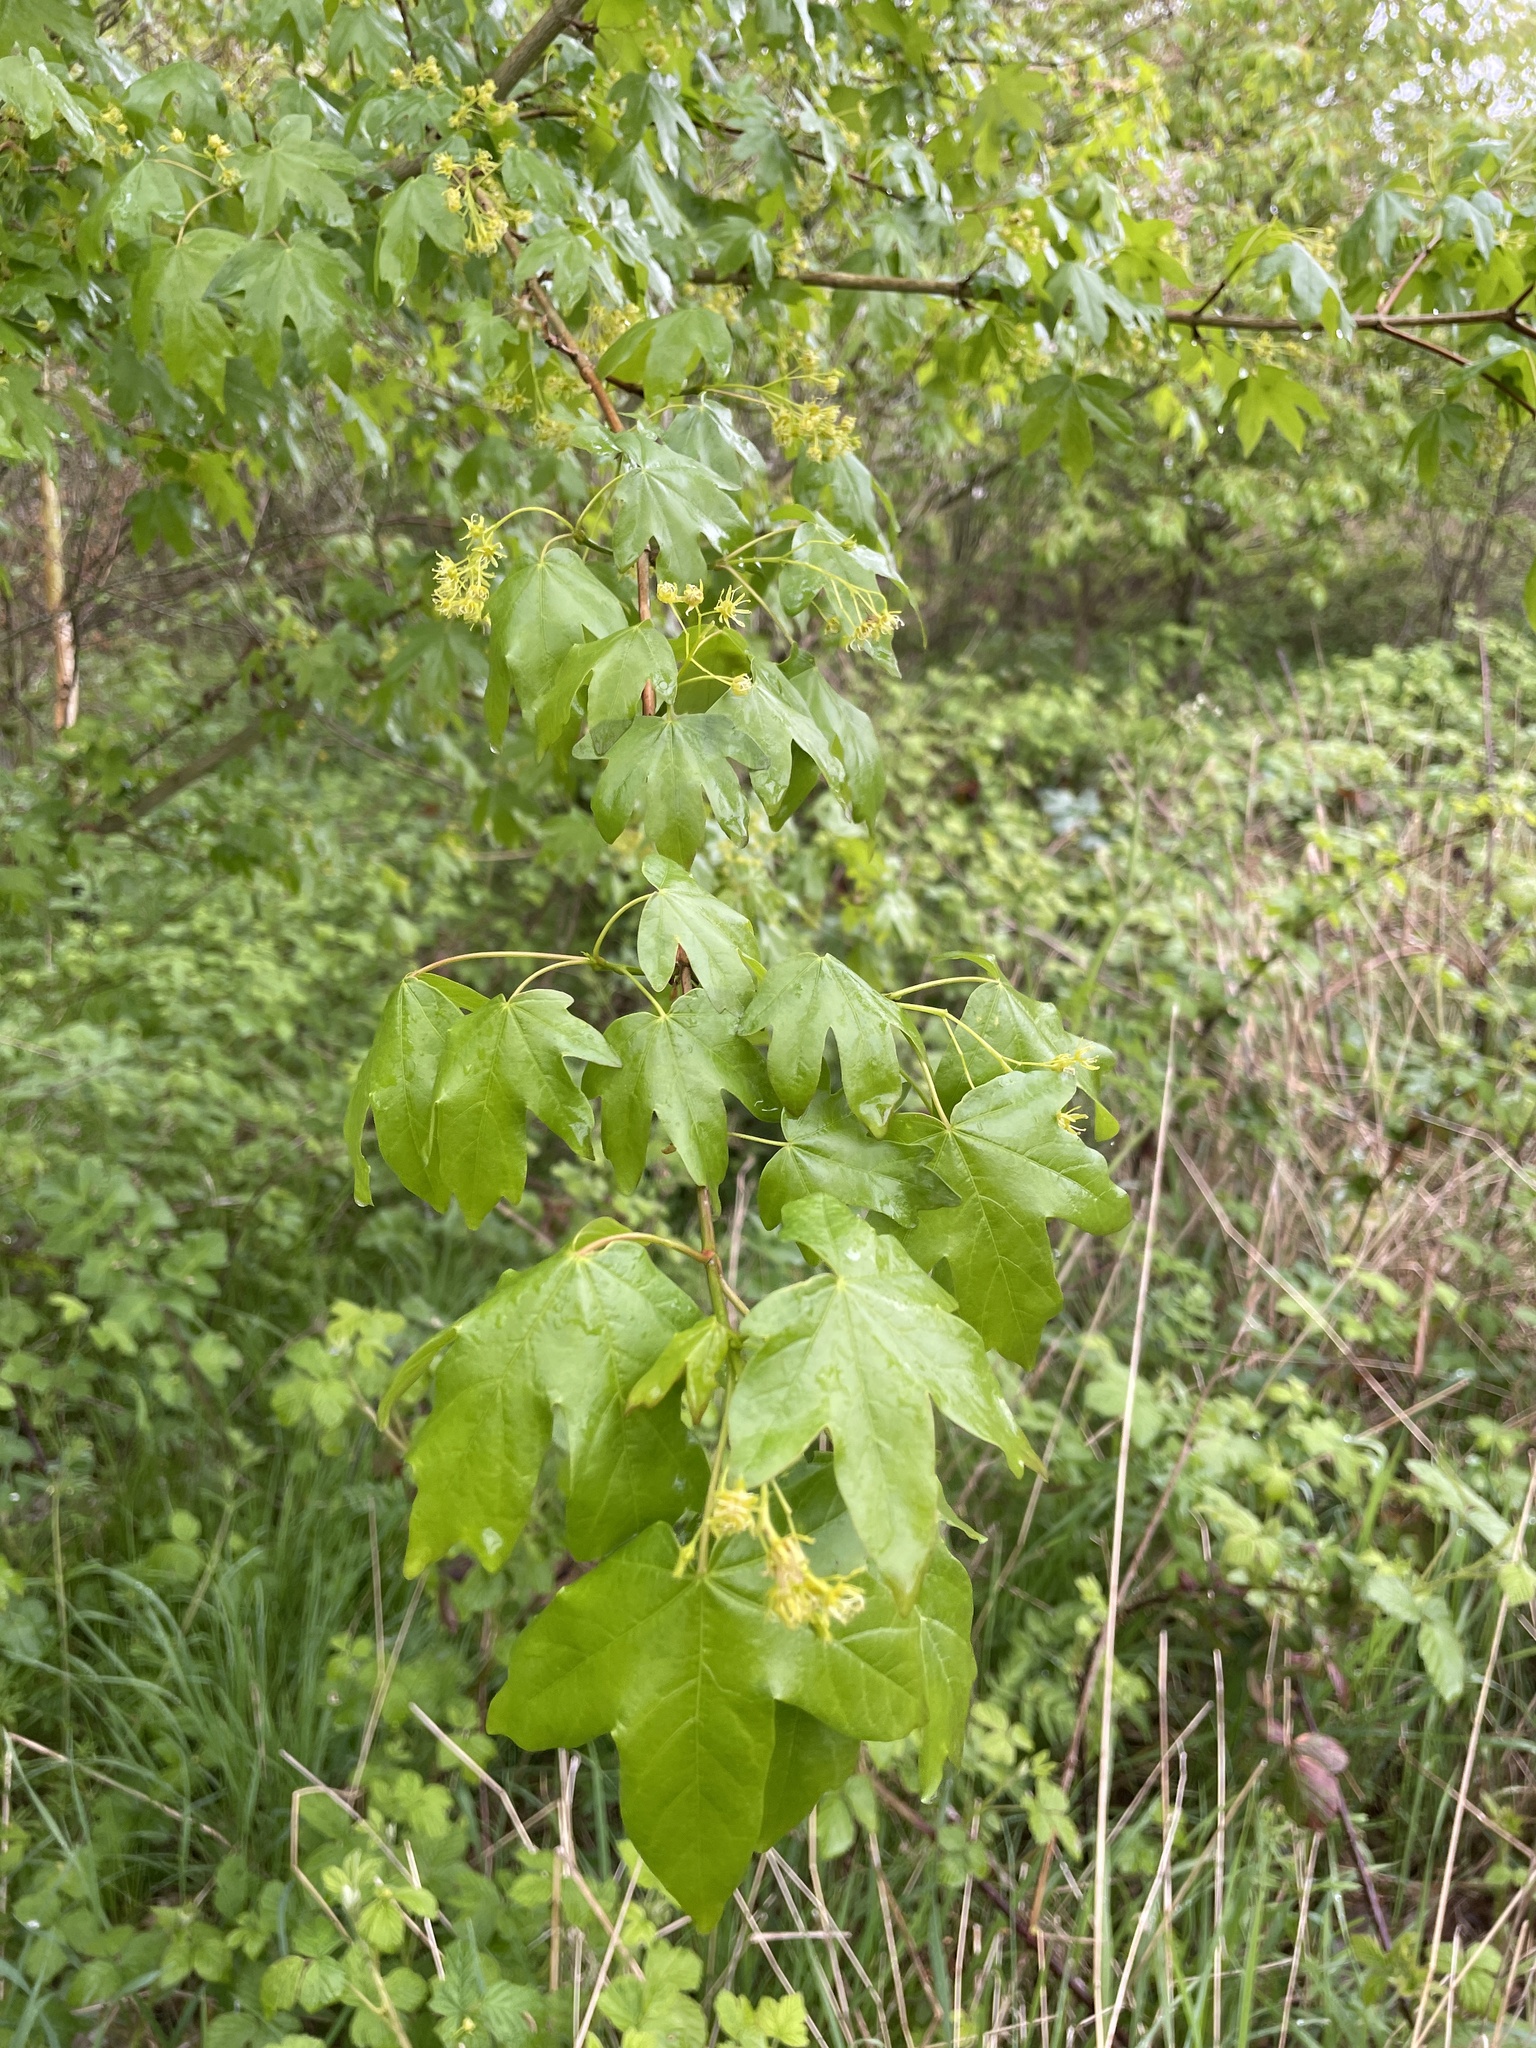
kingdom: Plantae
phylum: Tracheophyta
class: Magnoliopsida
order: Sapindales
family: Sapindaceae
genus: Acer
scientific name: Acer campestre
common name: Field maple
